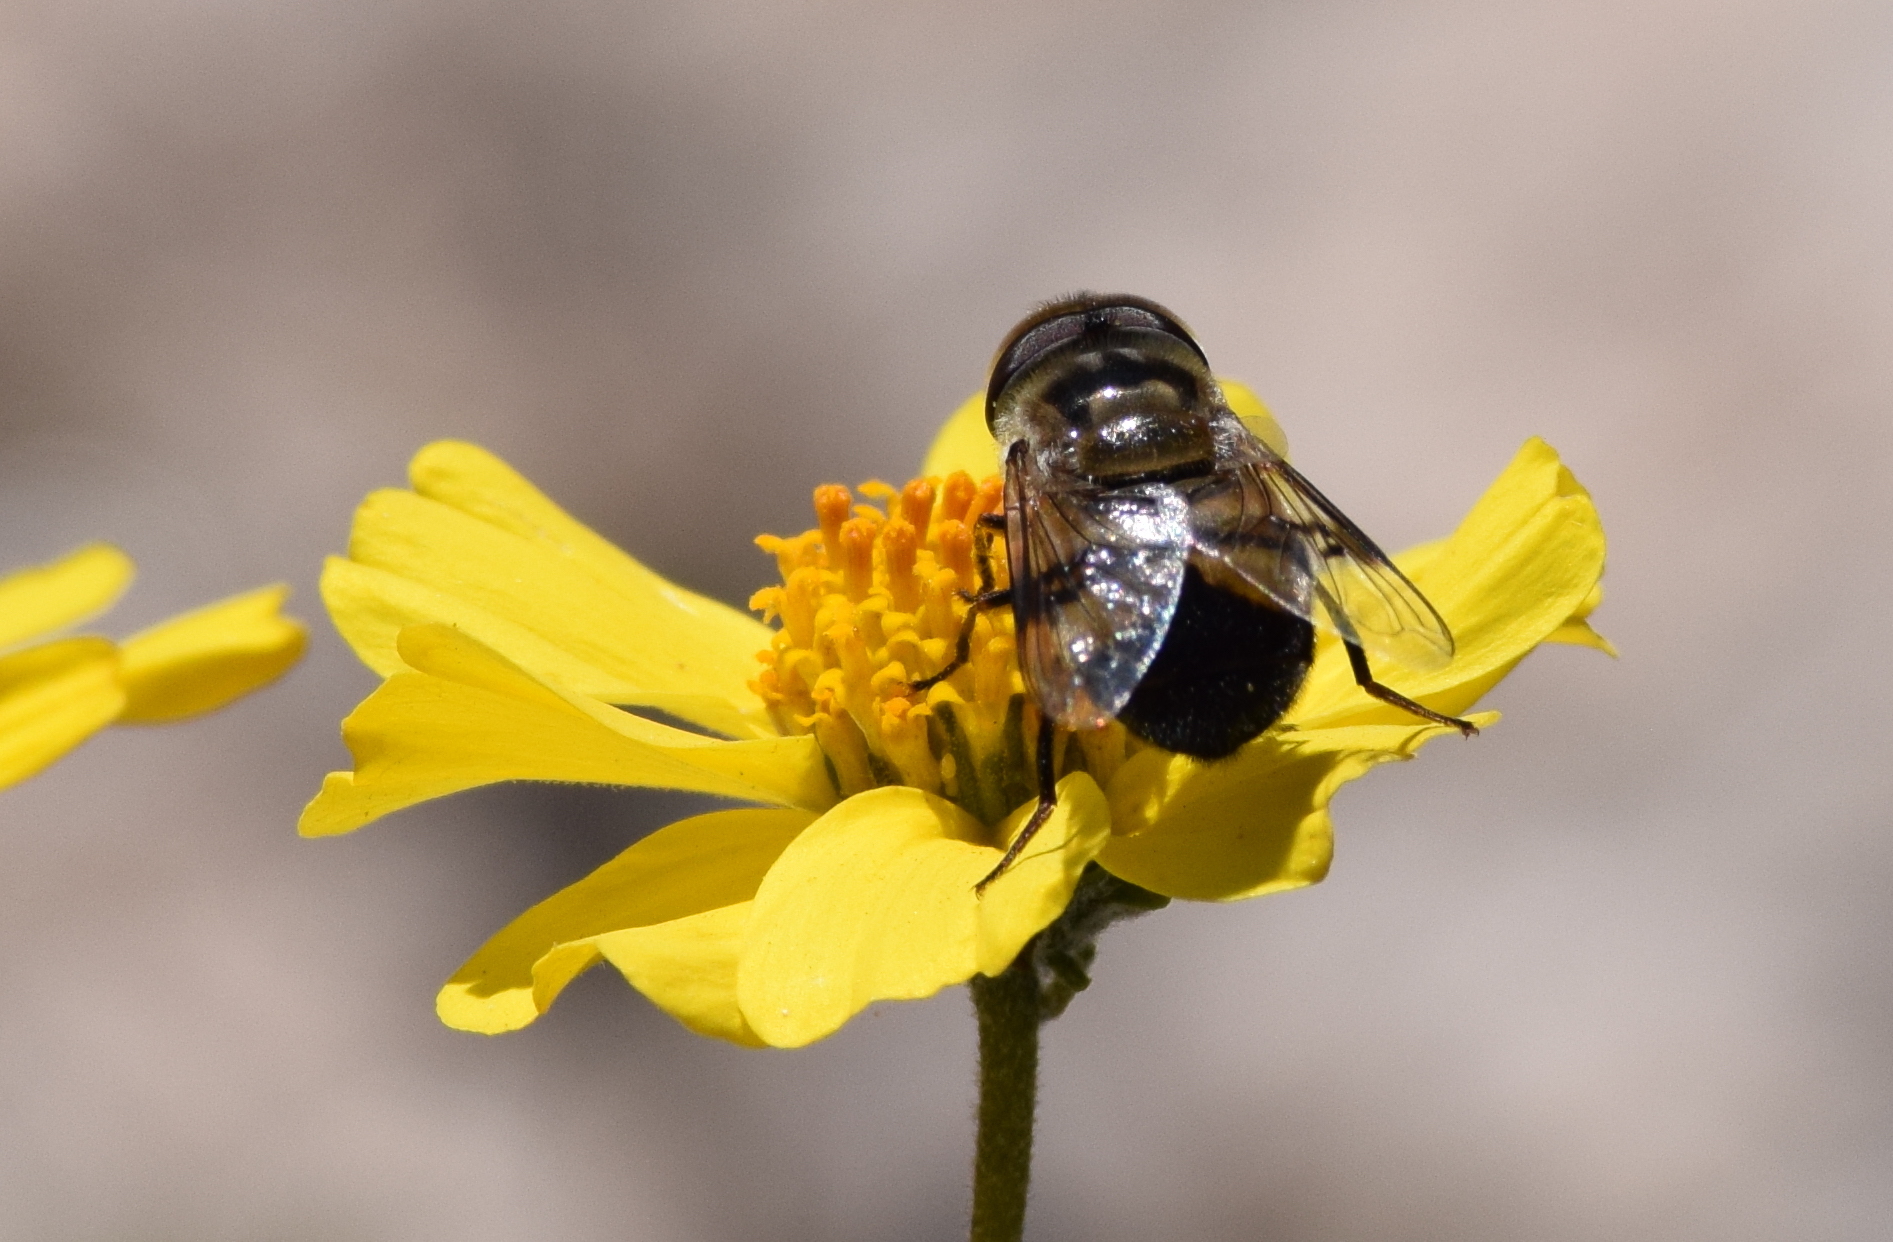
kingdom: Animalia
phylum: Arthropoda
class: Insecta
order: Diptera
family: Syrphidae
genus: Copestylum
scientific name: Copestylum apiciferum
